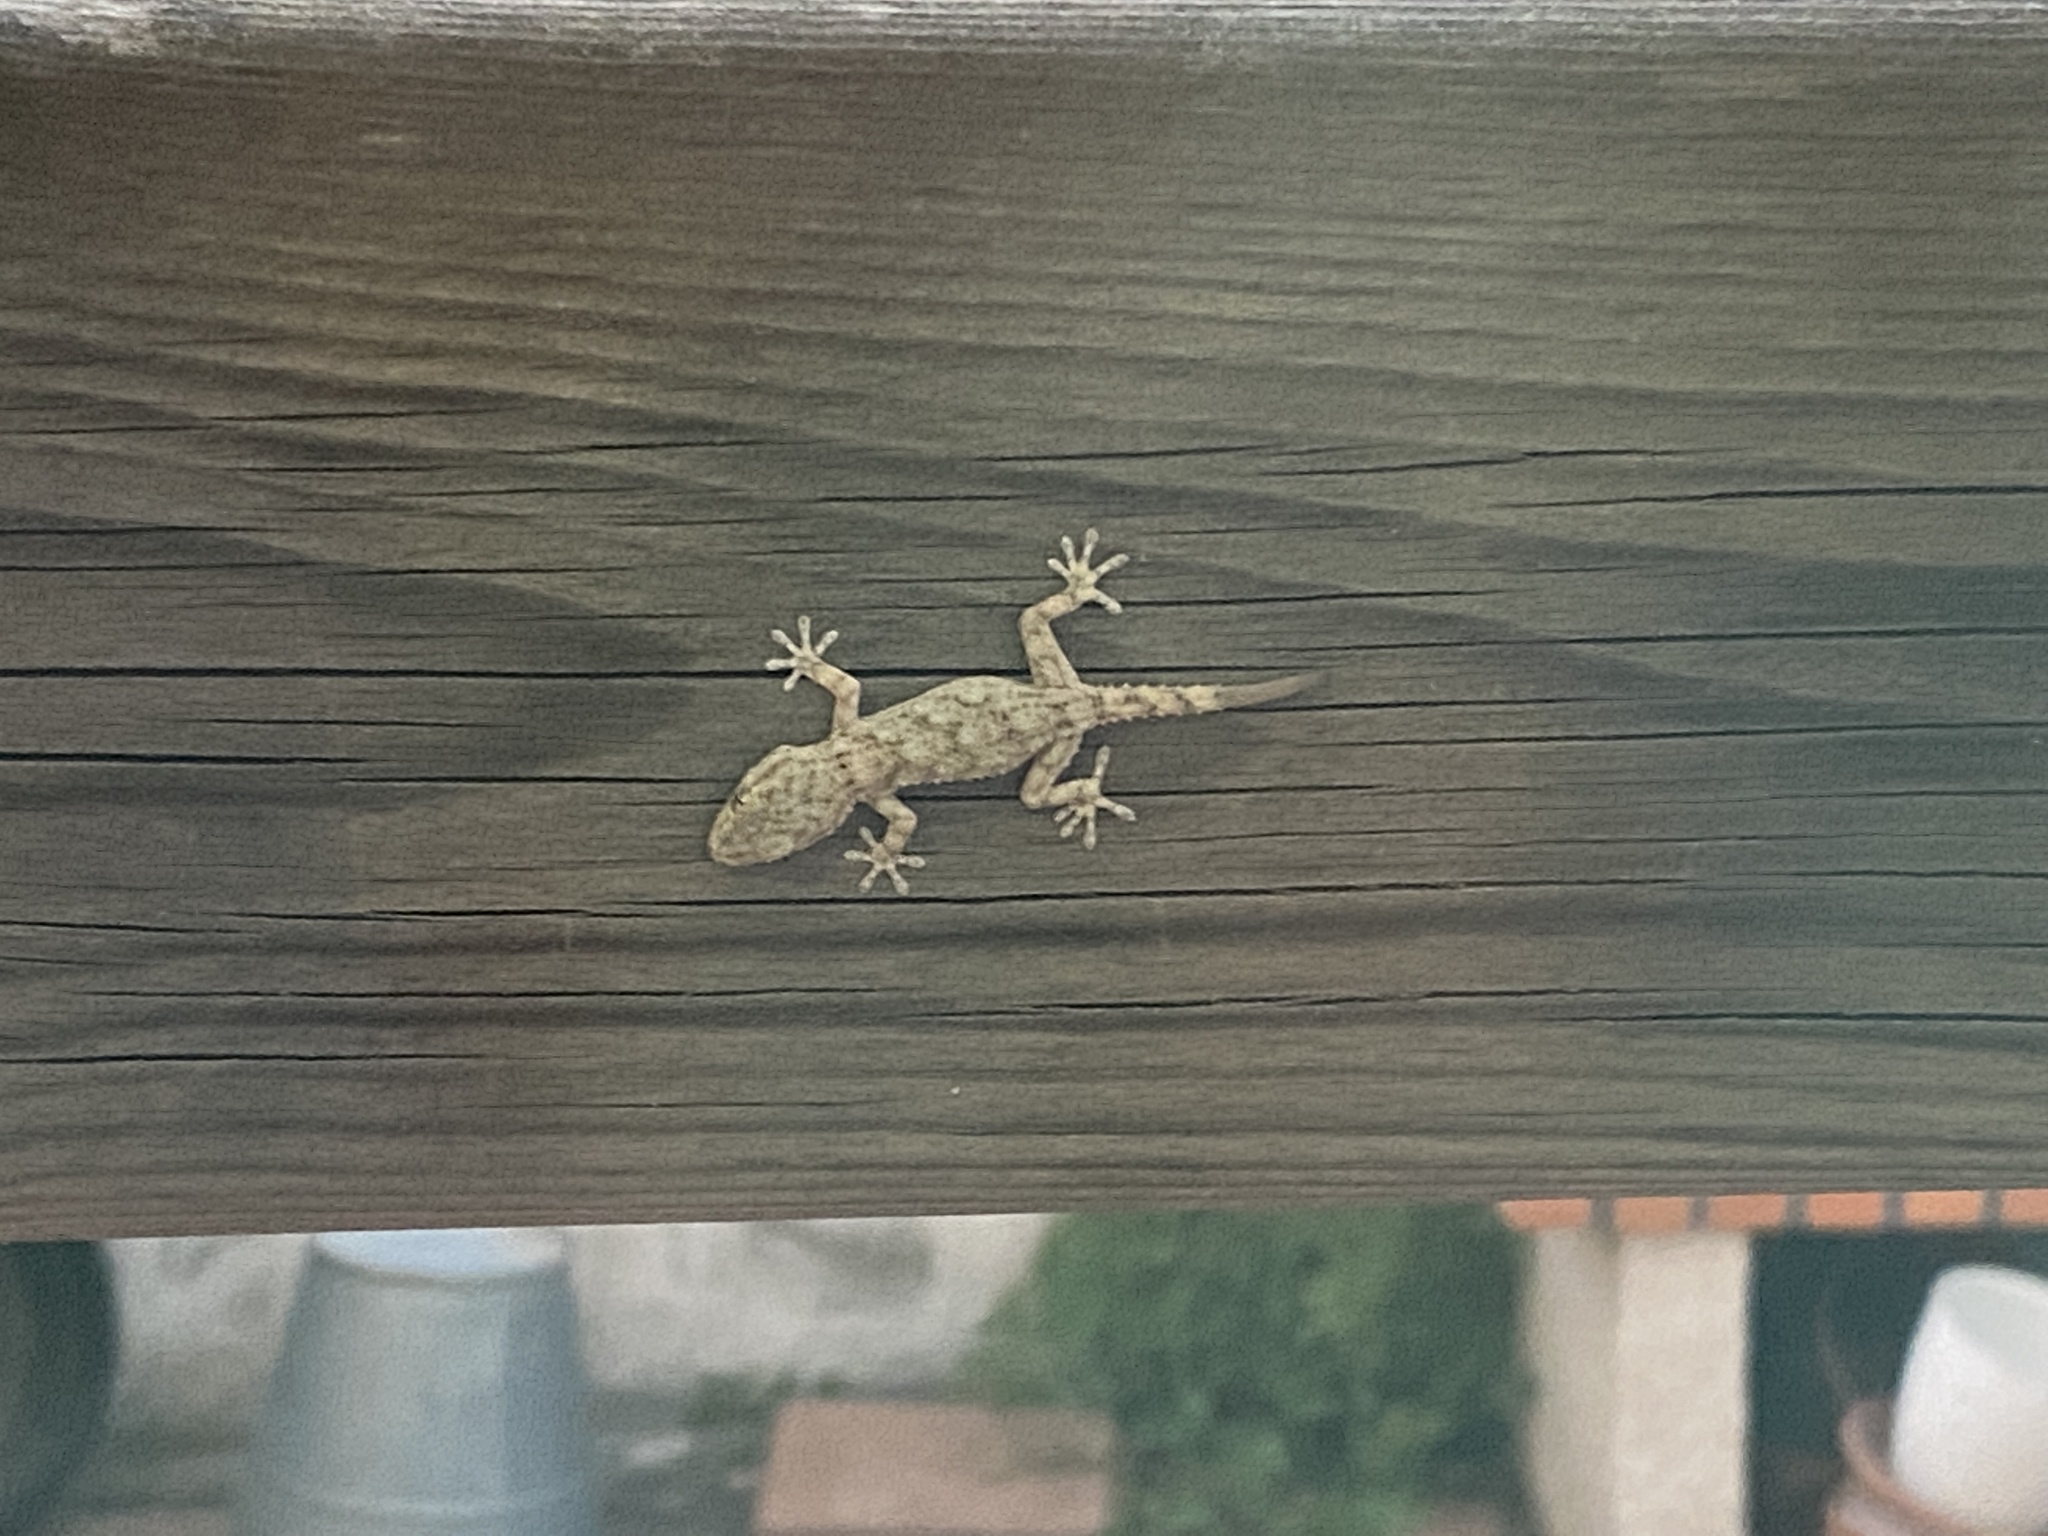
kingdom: Animalia
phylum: Chordata
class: Squamata
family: Phyllodactylidae
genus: Tarentola
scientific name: Tarentola mauritanica
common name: Moorish gecko
